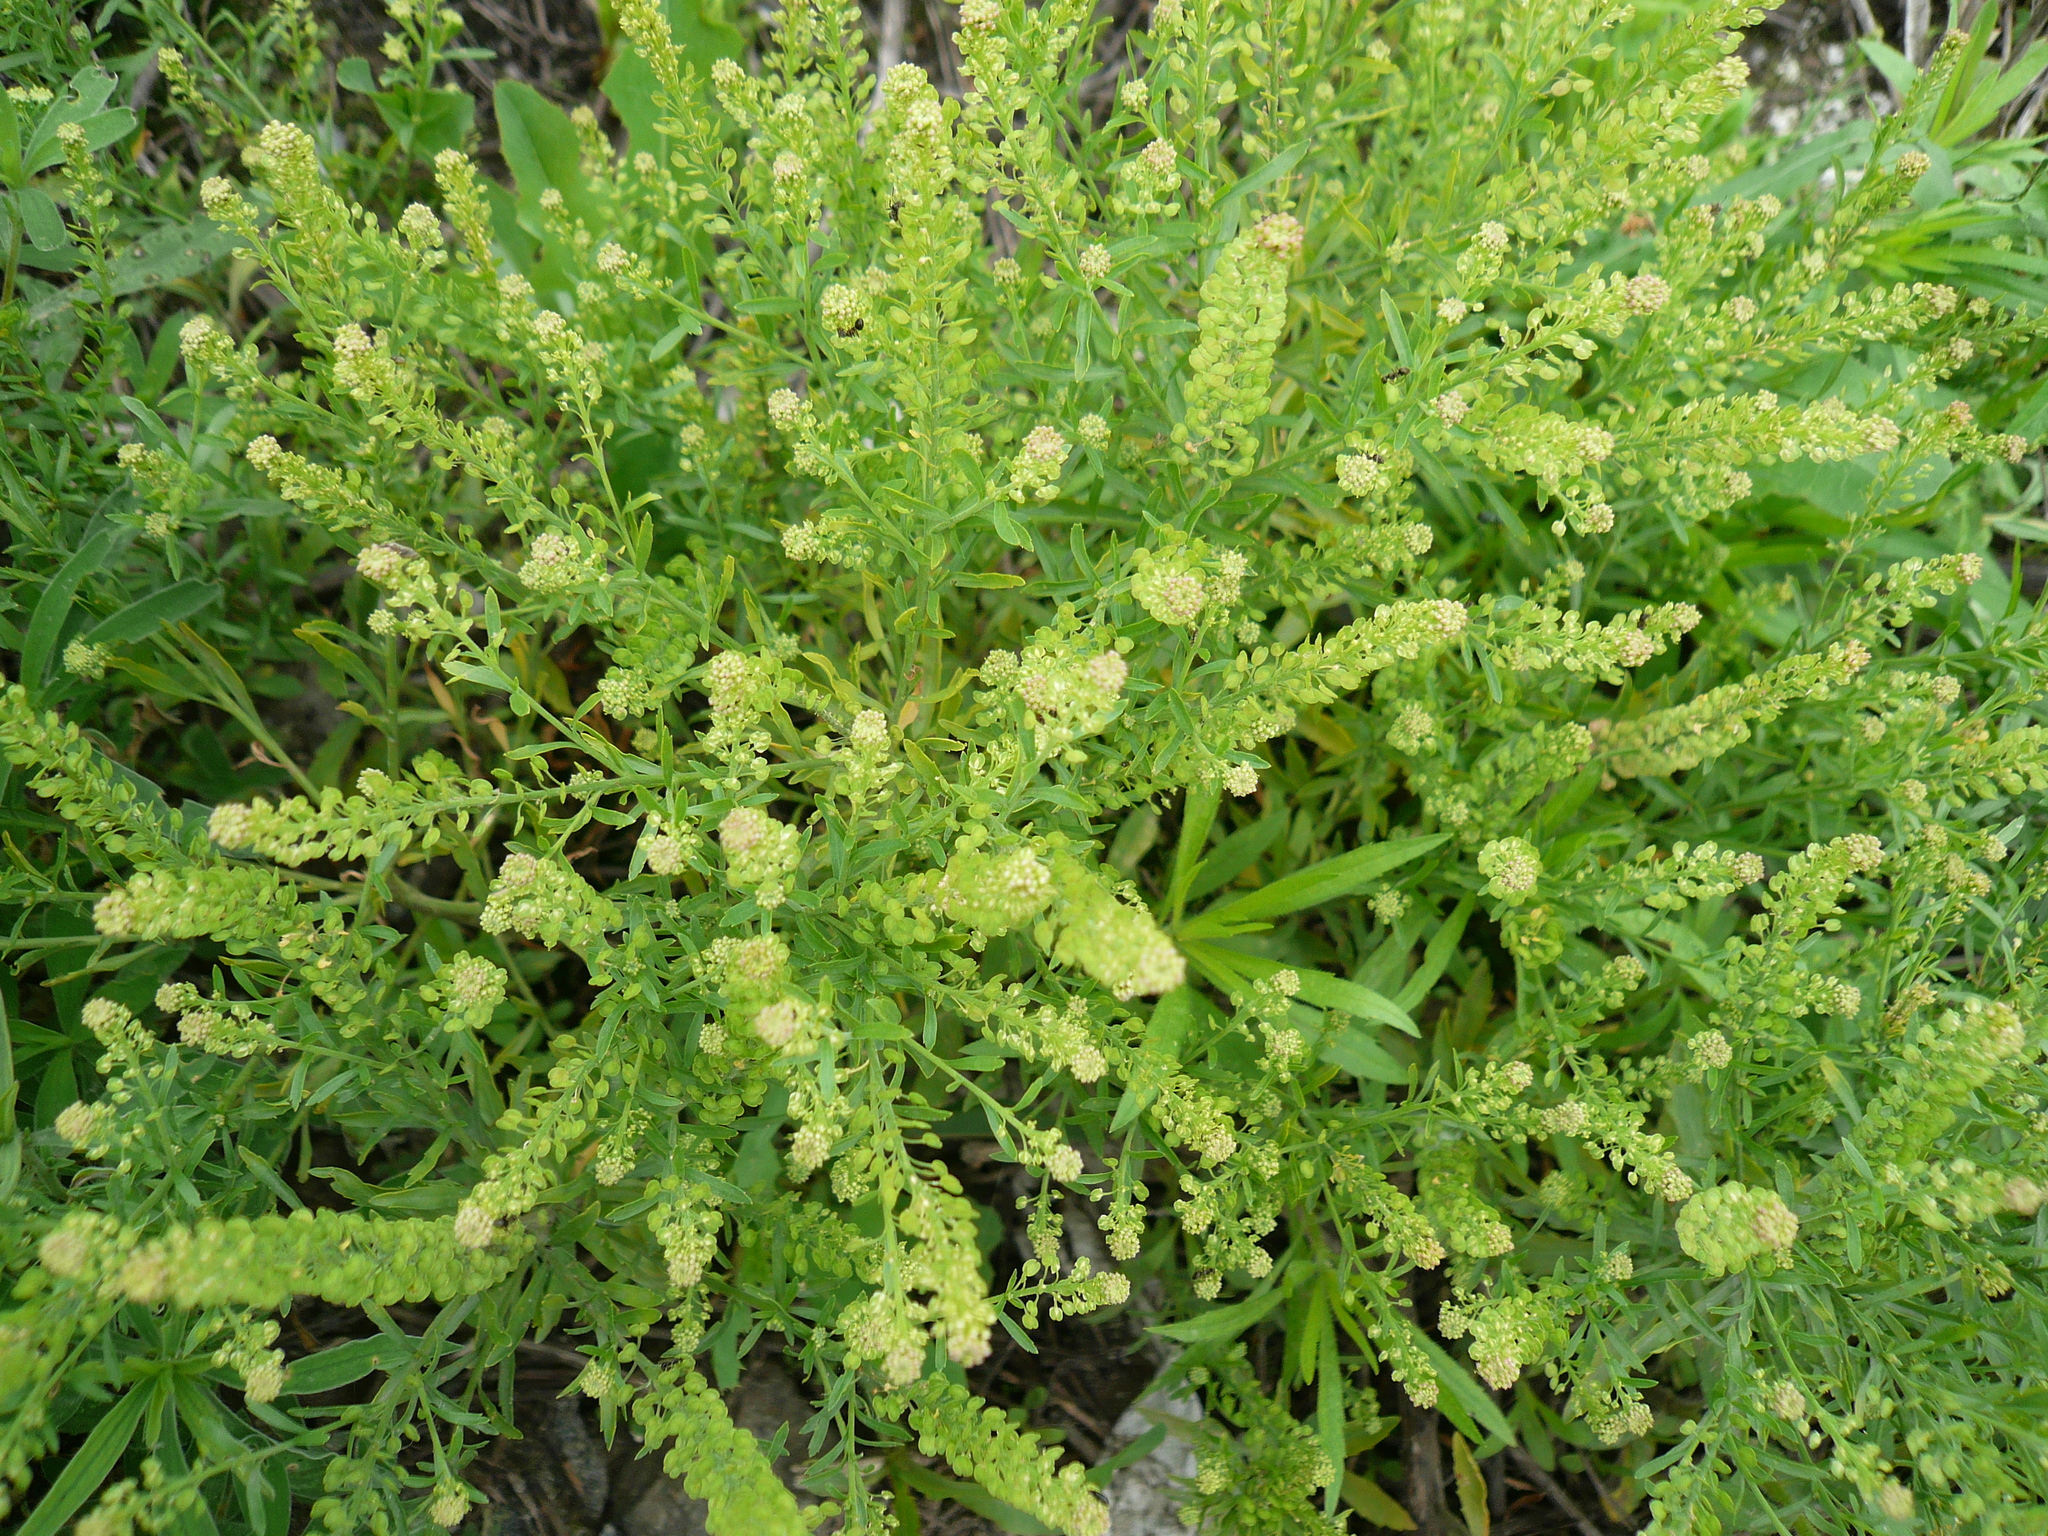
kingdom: Plantae
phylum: Tracheophyta
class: Magnoliopsida
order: Brassicales
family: Brassicaceae
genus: Lepidium
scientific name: Lepidium densiflorum
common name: Miner's pepperwort
